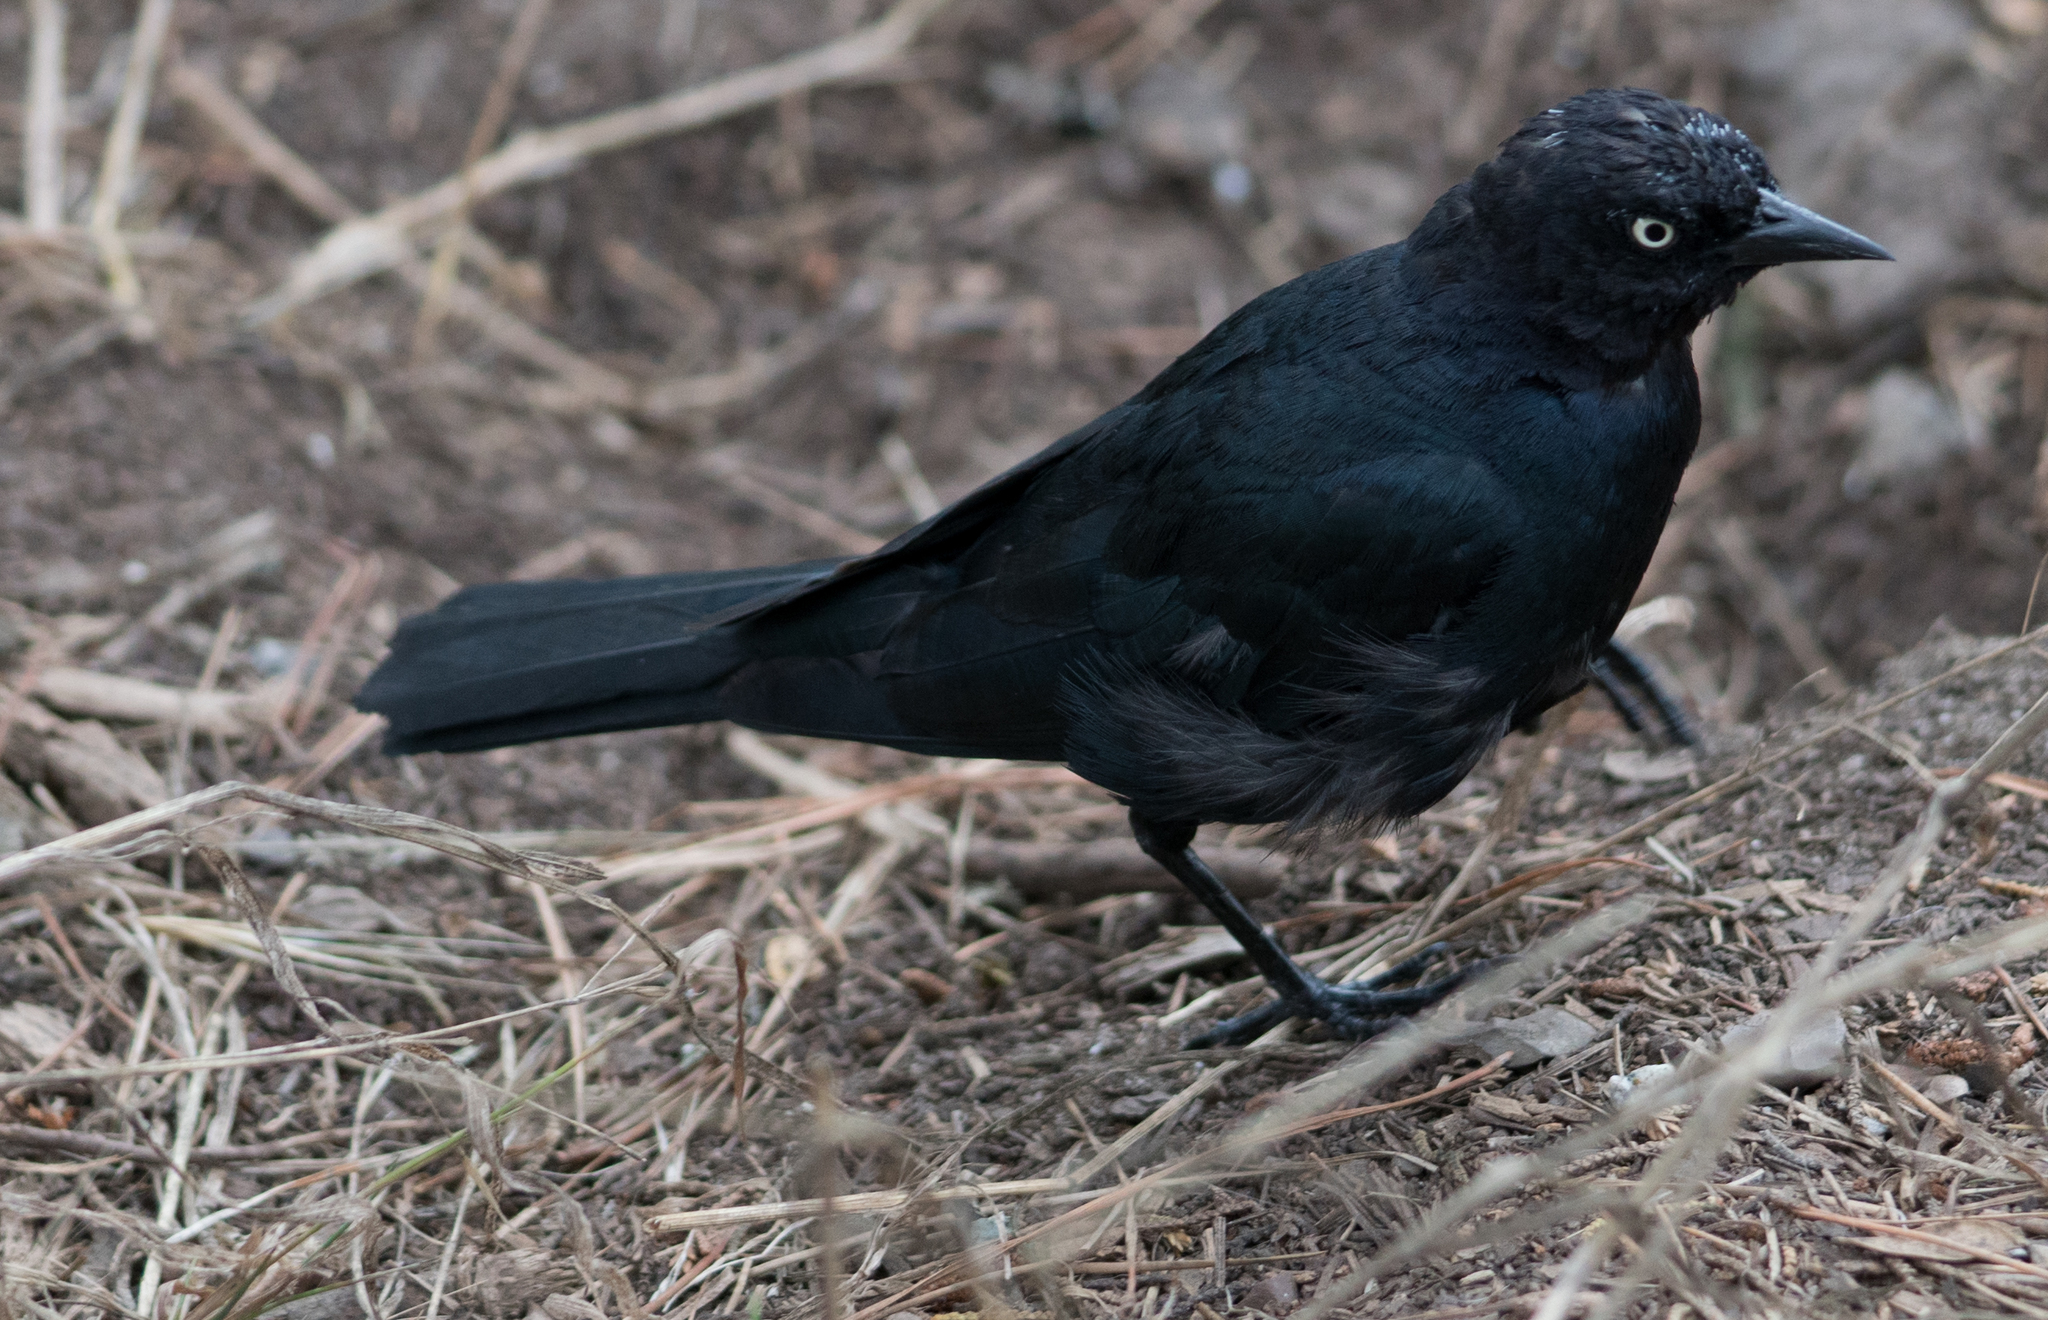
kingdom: Animalia
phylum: Chordata
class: Aves
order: Passeriformes
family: Icteridae
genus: Euphagus
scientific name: Euphagus cyanocephalus
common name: Brewer's blackbird
